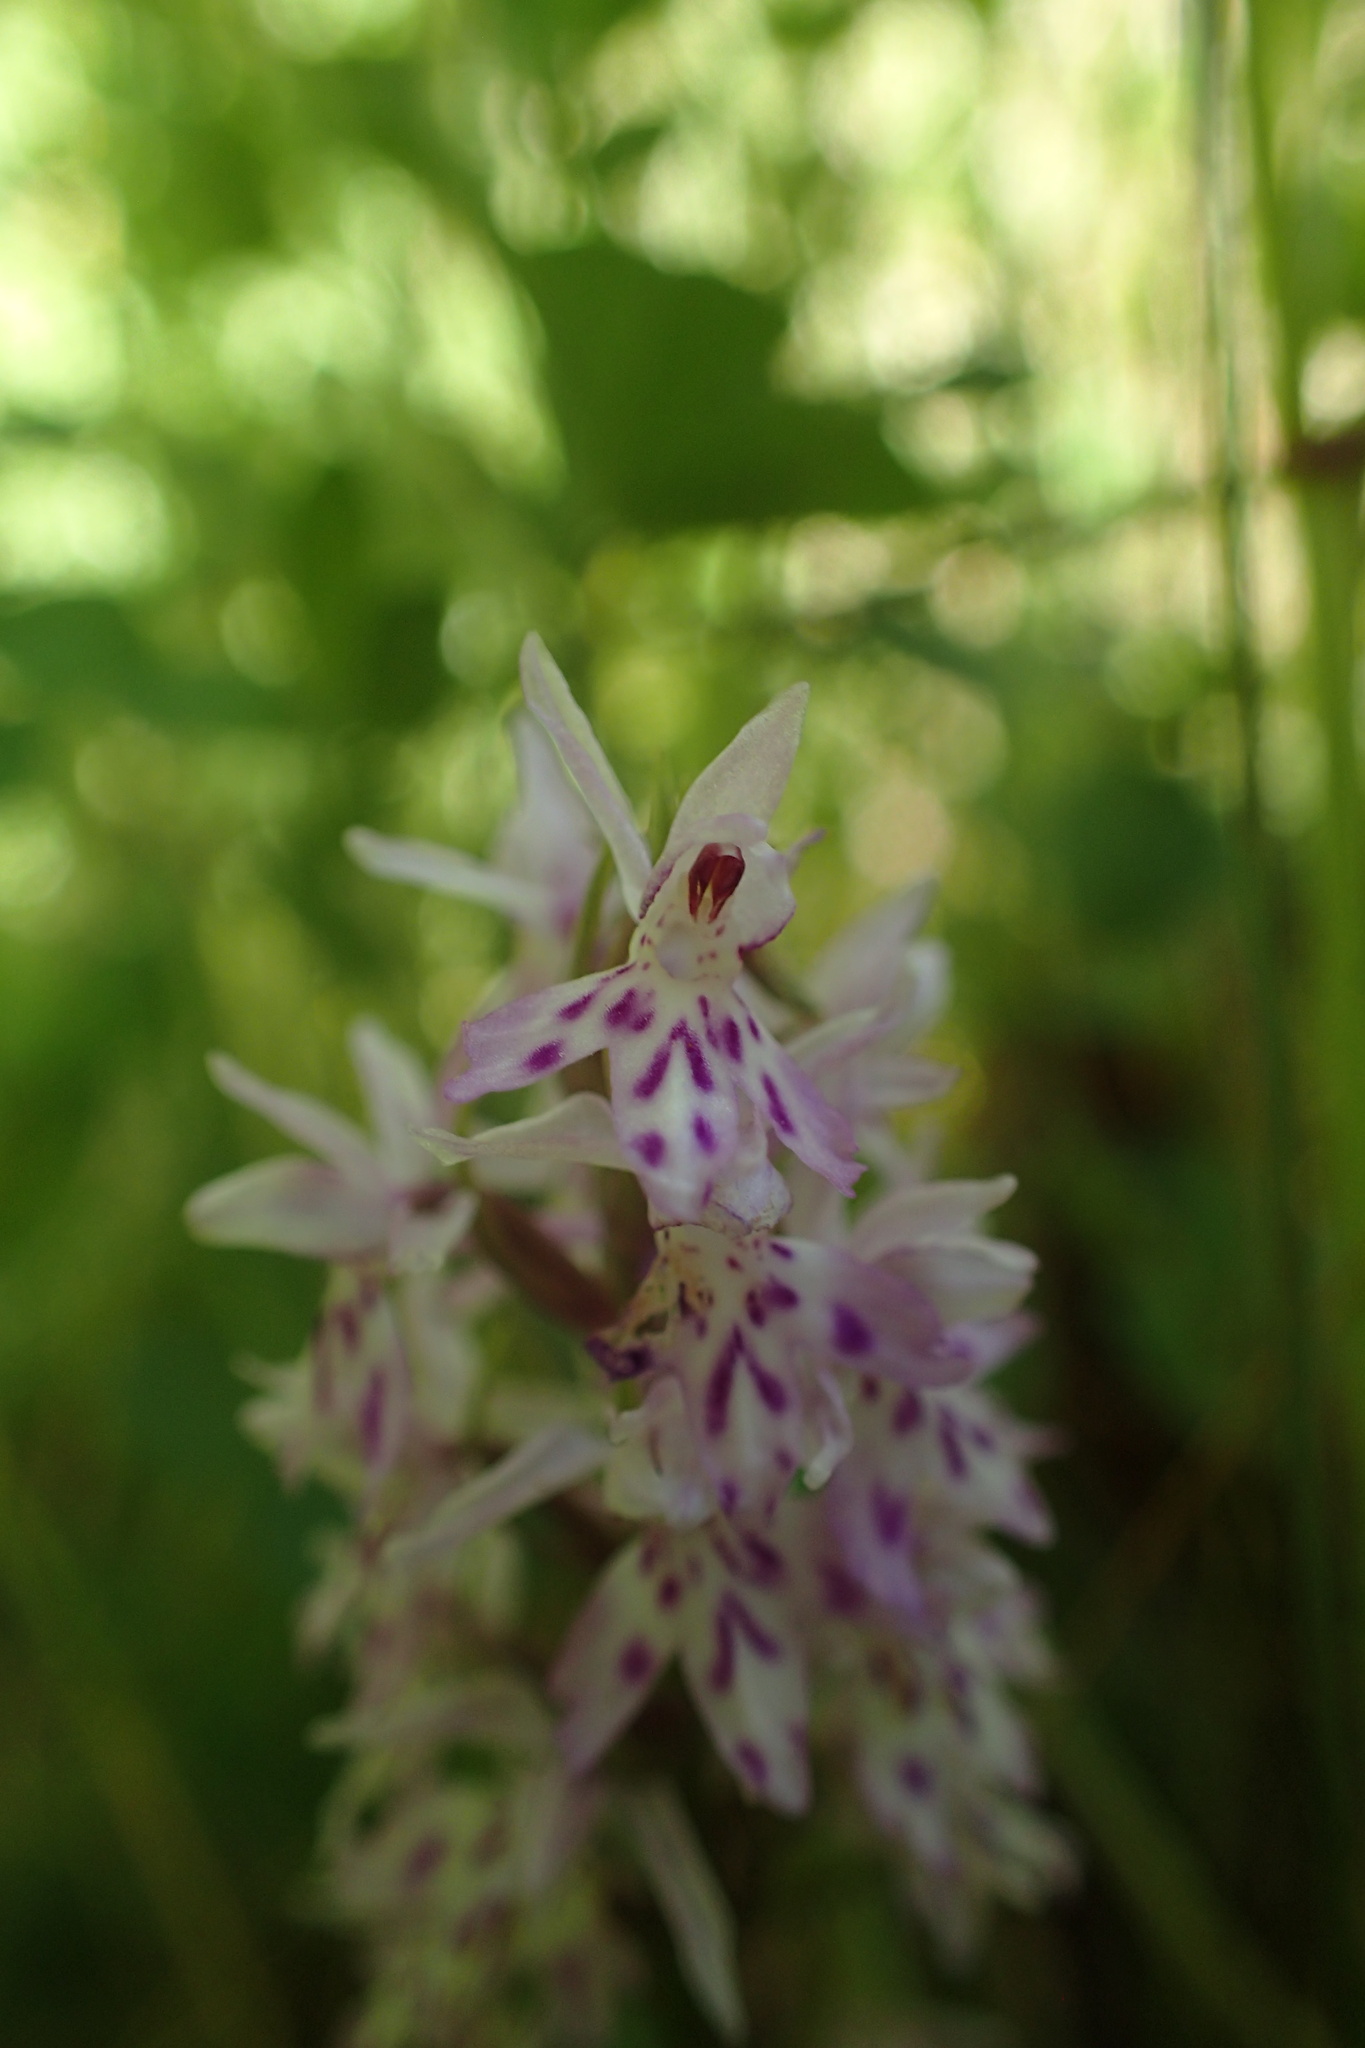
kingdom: Plantae
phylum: Tracheophyta
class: Liliopsida
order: Asparagales
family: Orchidaceae
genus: Dactylorhiza
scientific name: Dactylorhiza maculata
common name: Heath spotted-orchid
